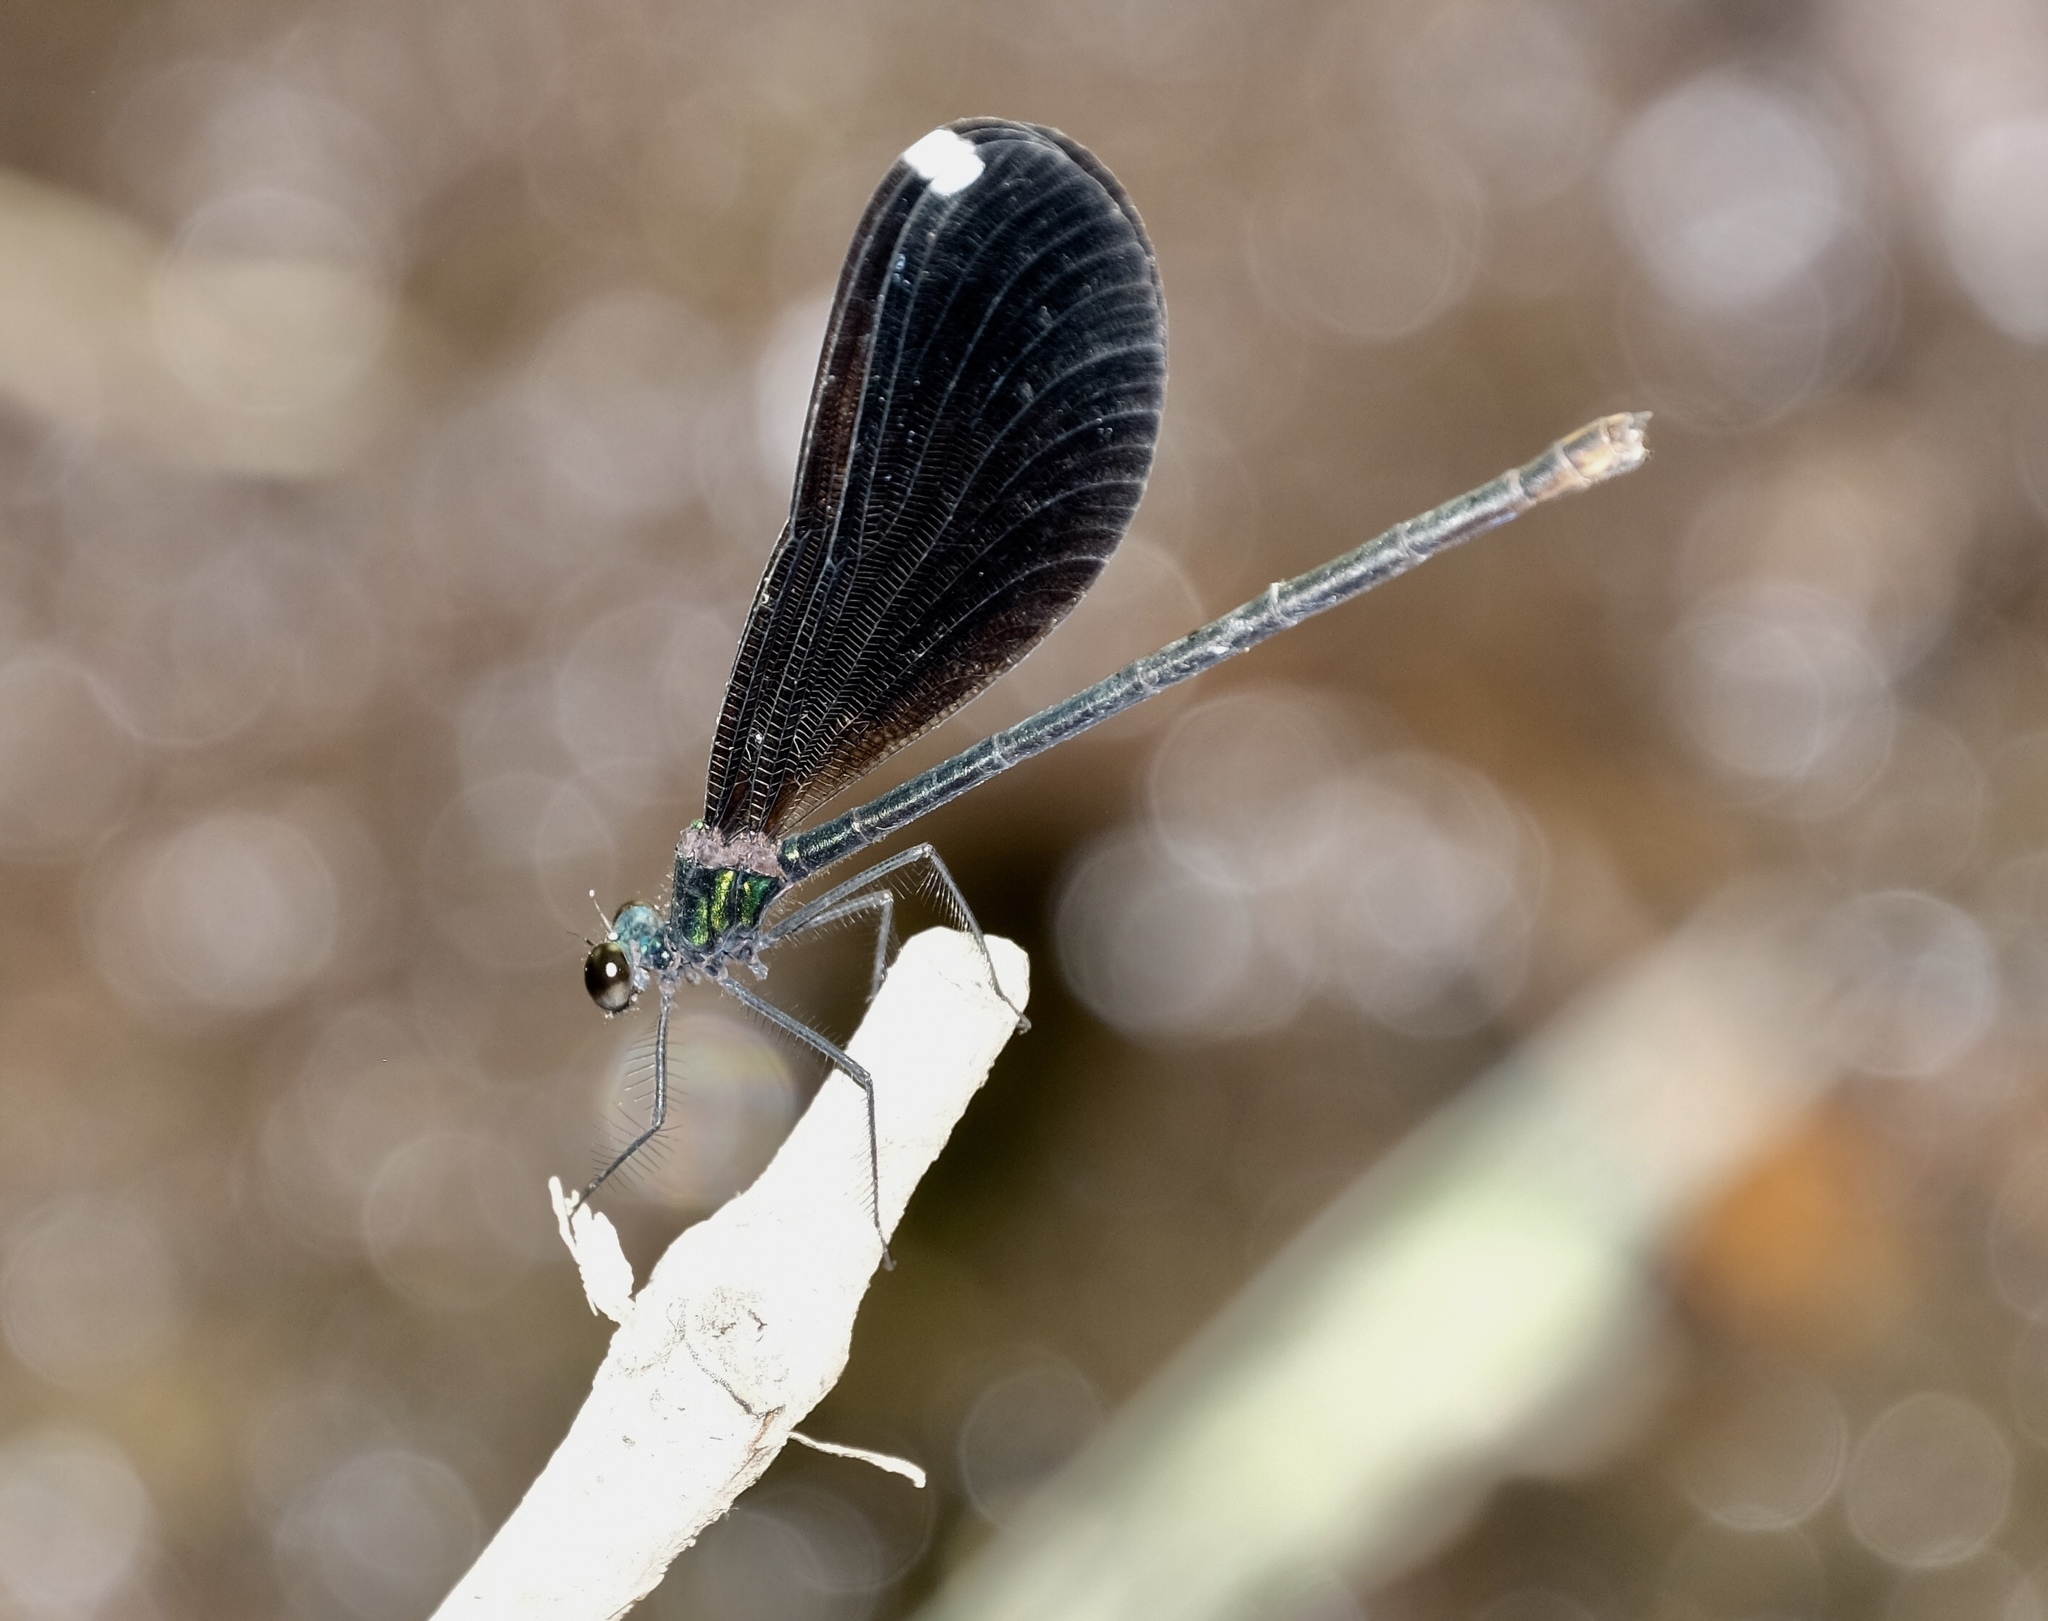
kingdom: Animalia
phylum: Arthropoda
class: Insecta
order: Odonata
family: Calopterygidae
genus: Calopteryx
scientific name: Calopteryx maculata
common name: Ebony jewelwing
